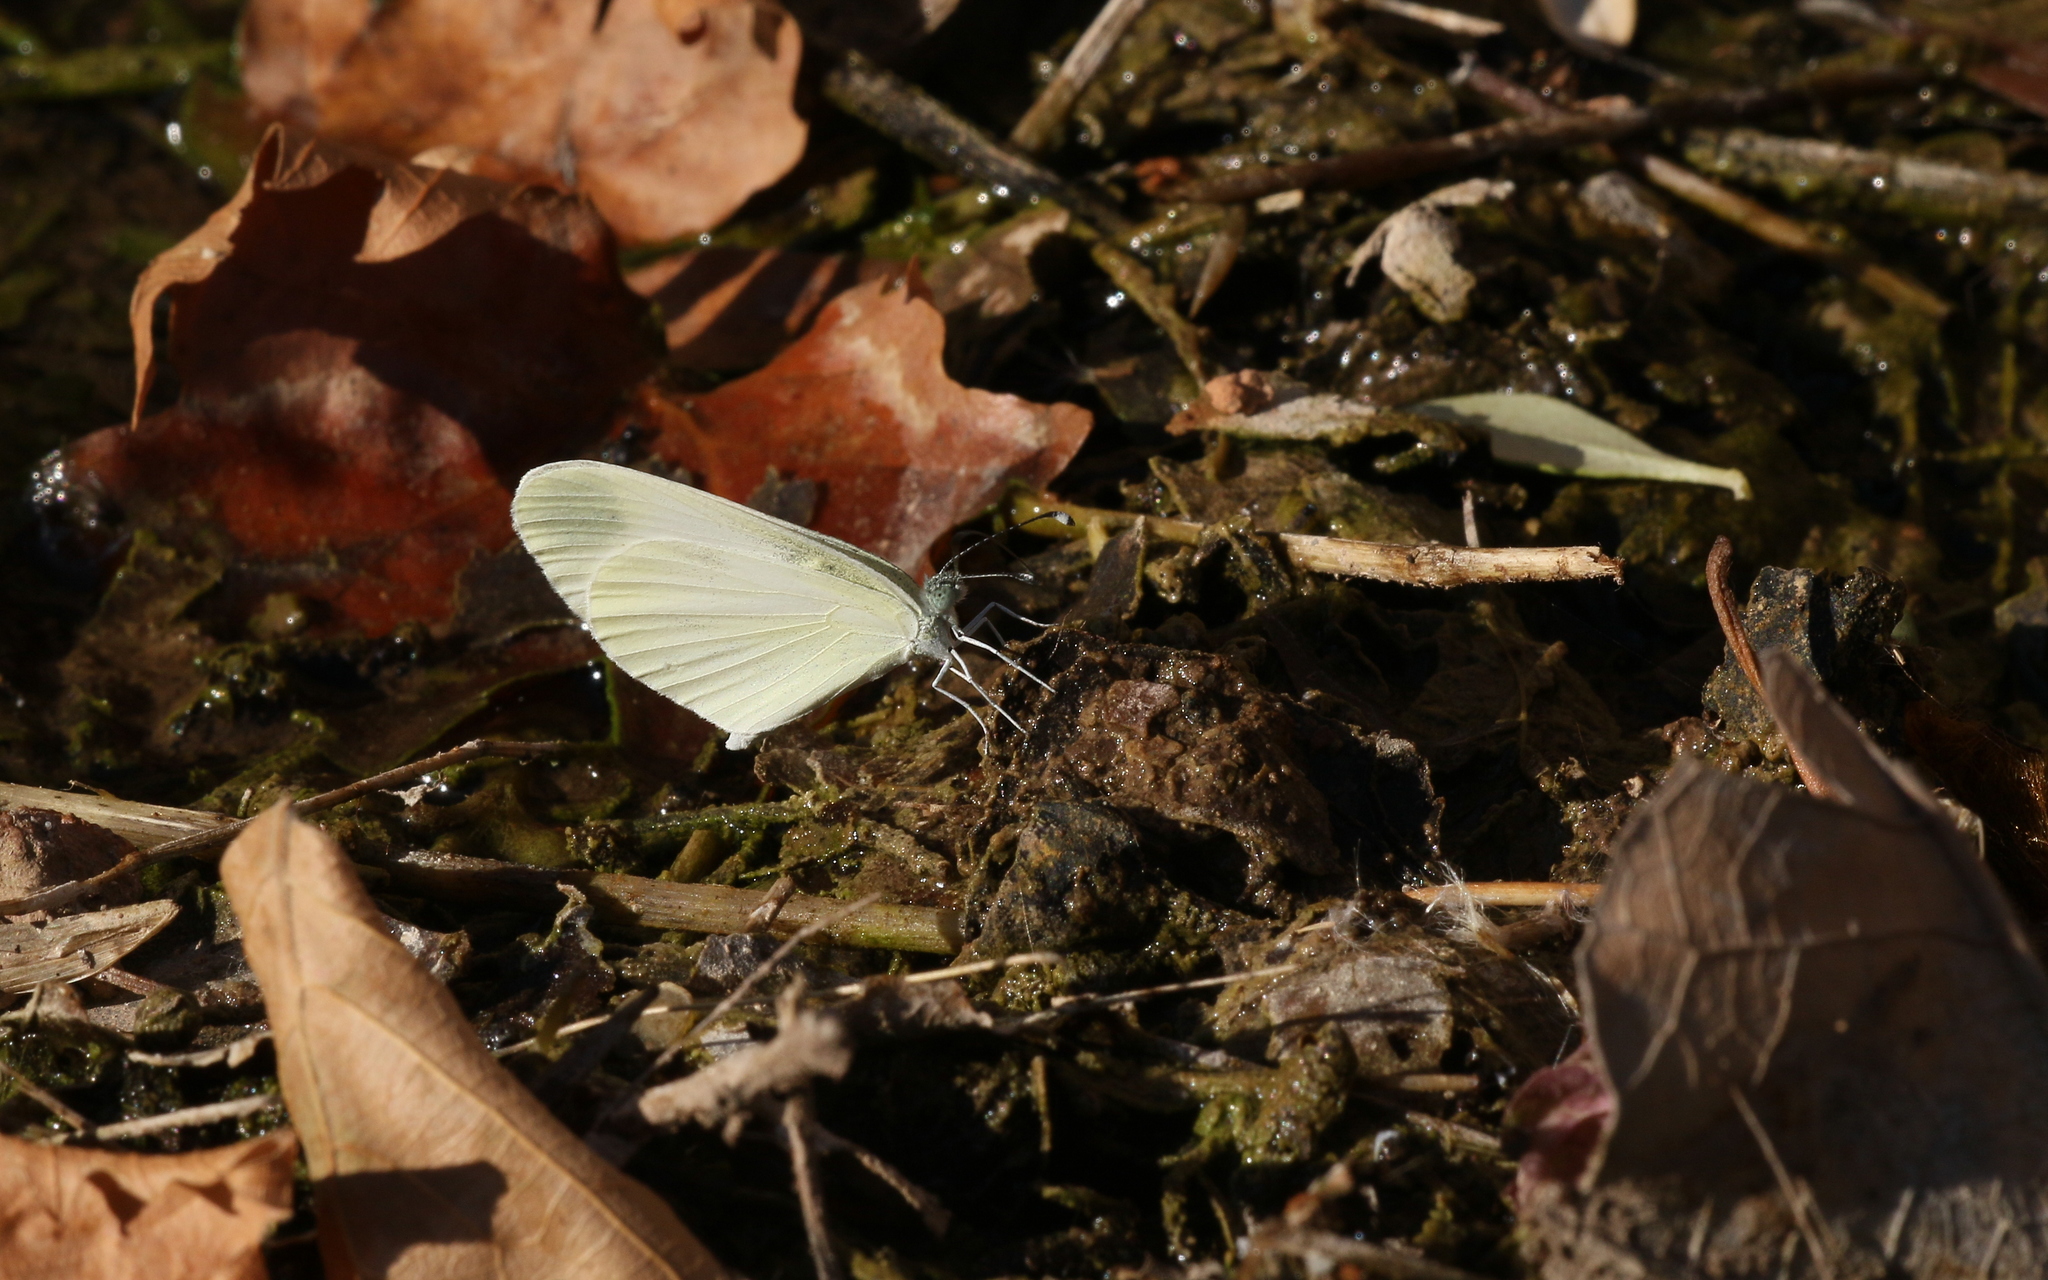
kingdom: Animalia
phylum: Arthropoda
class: Insecta
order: Lepidoptera
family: Pieridae
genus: Leptidea
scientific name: Leptidea sinapis
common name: Wood white
